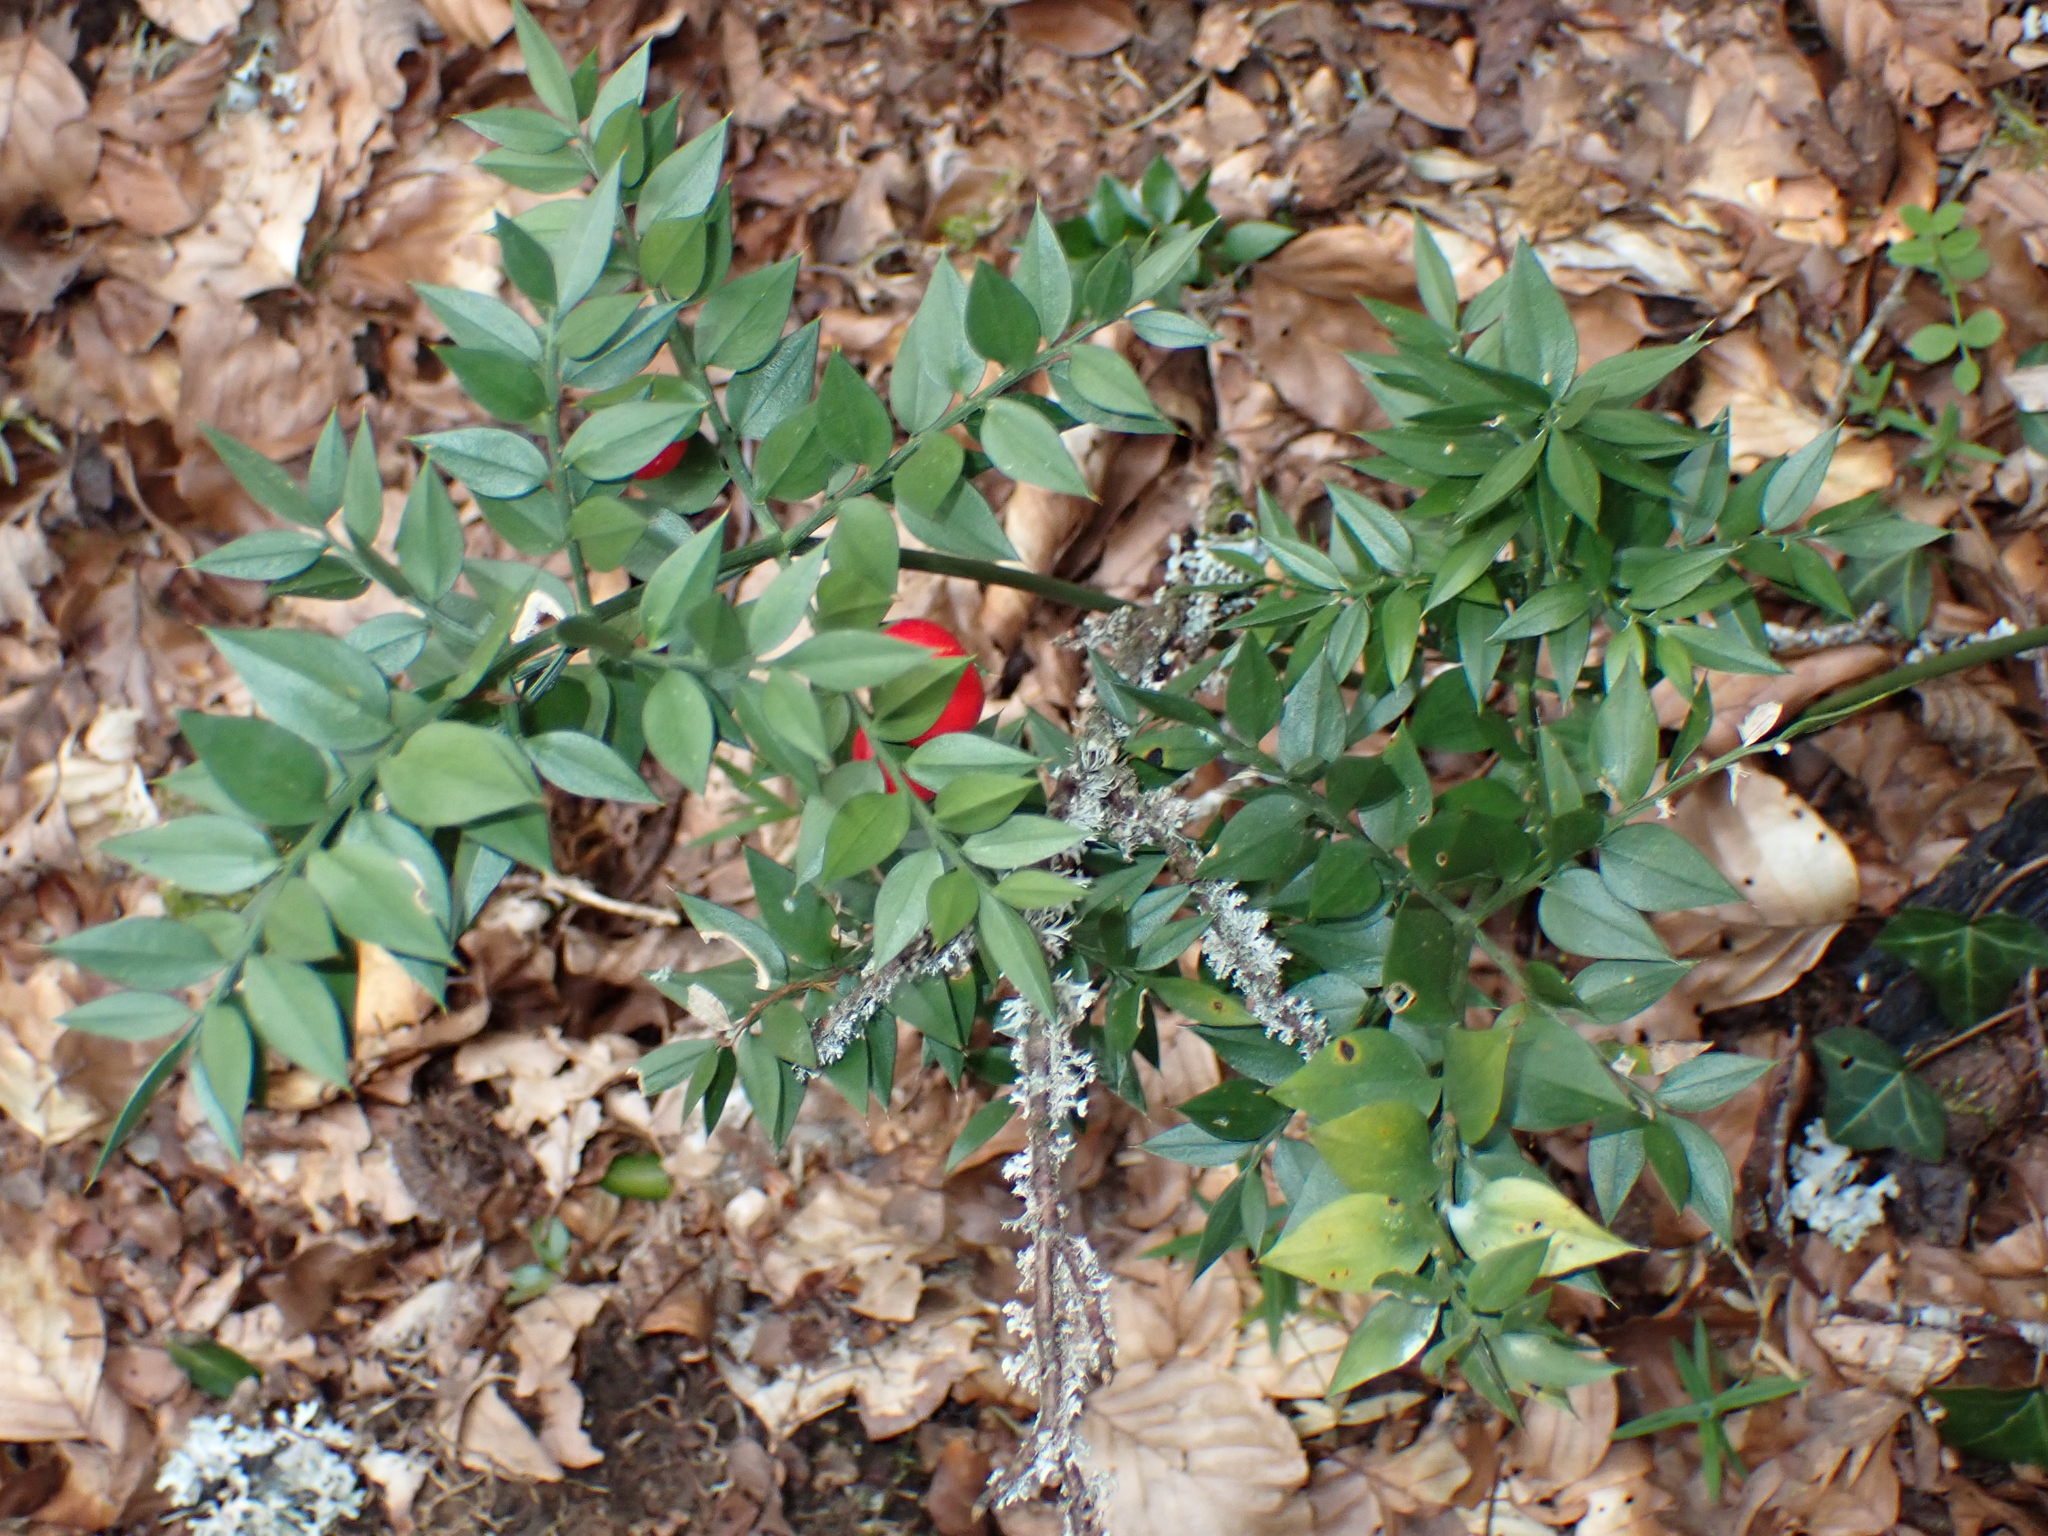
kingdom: Plantae
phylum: Tracheophyta
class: Liliopsida
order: Asparagales
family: Asparagaceae
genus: Ruscus
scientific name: Ruscus aculeatus
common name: Butcher's-broom
